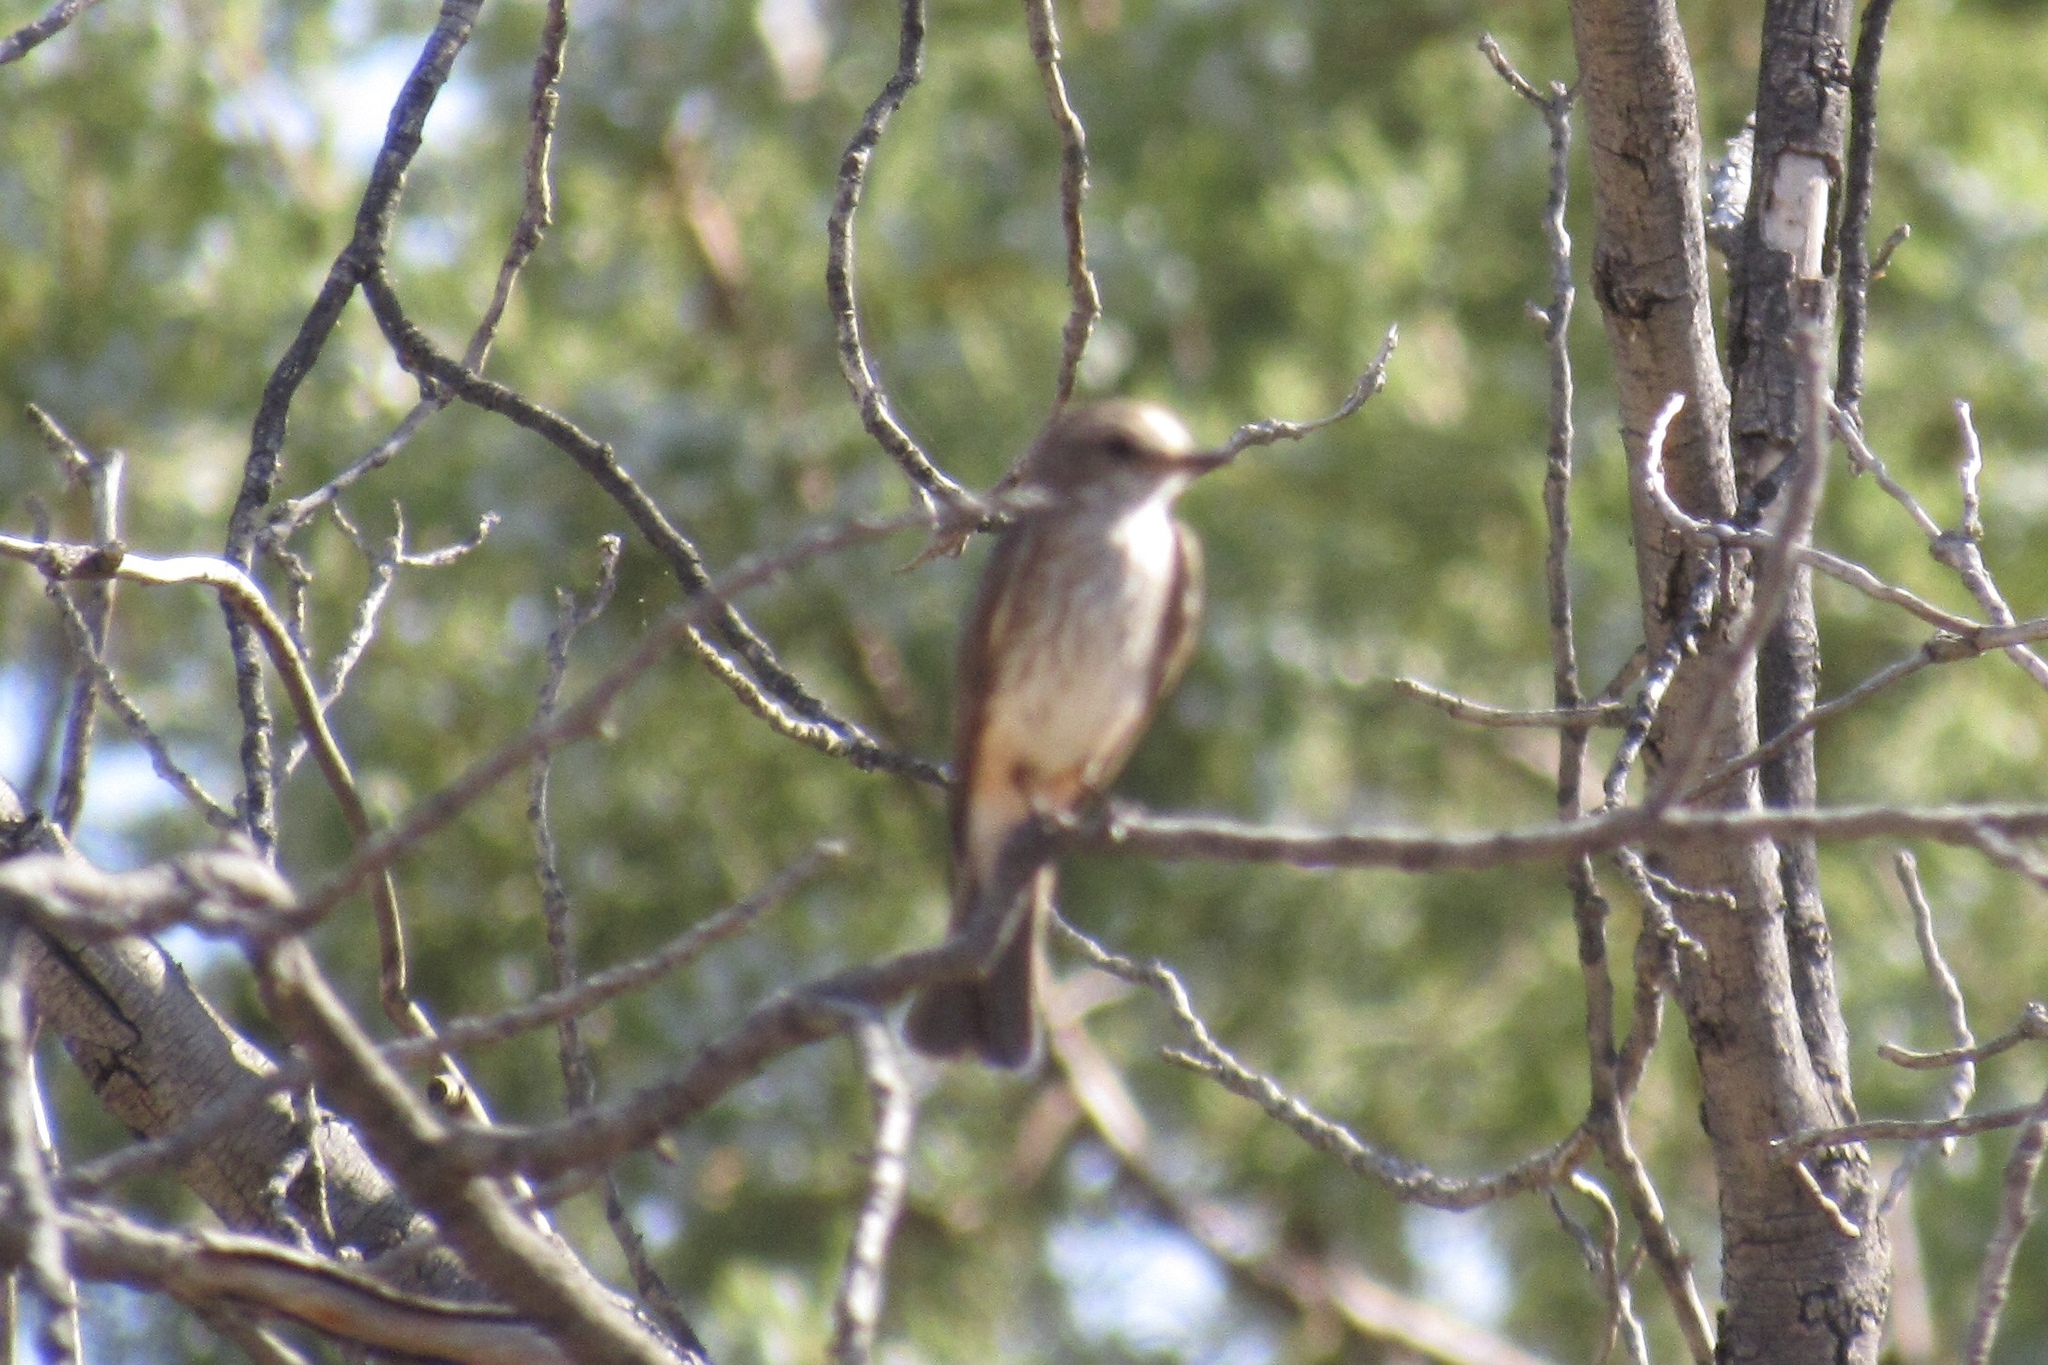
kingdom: Animalia
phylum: Chordata
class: Aves
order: Passeriformes
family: Tyrannidae
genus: Pyrocephalus
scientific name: Pyrocephalus rubinus
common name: Vermilion flycatcher
